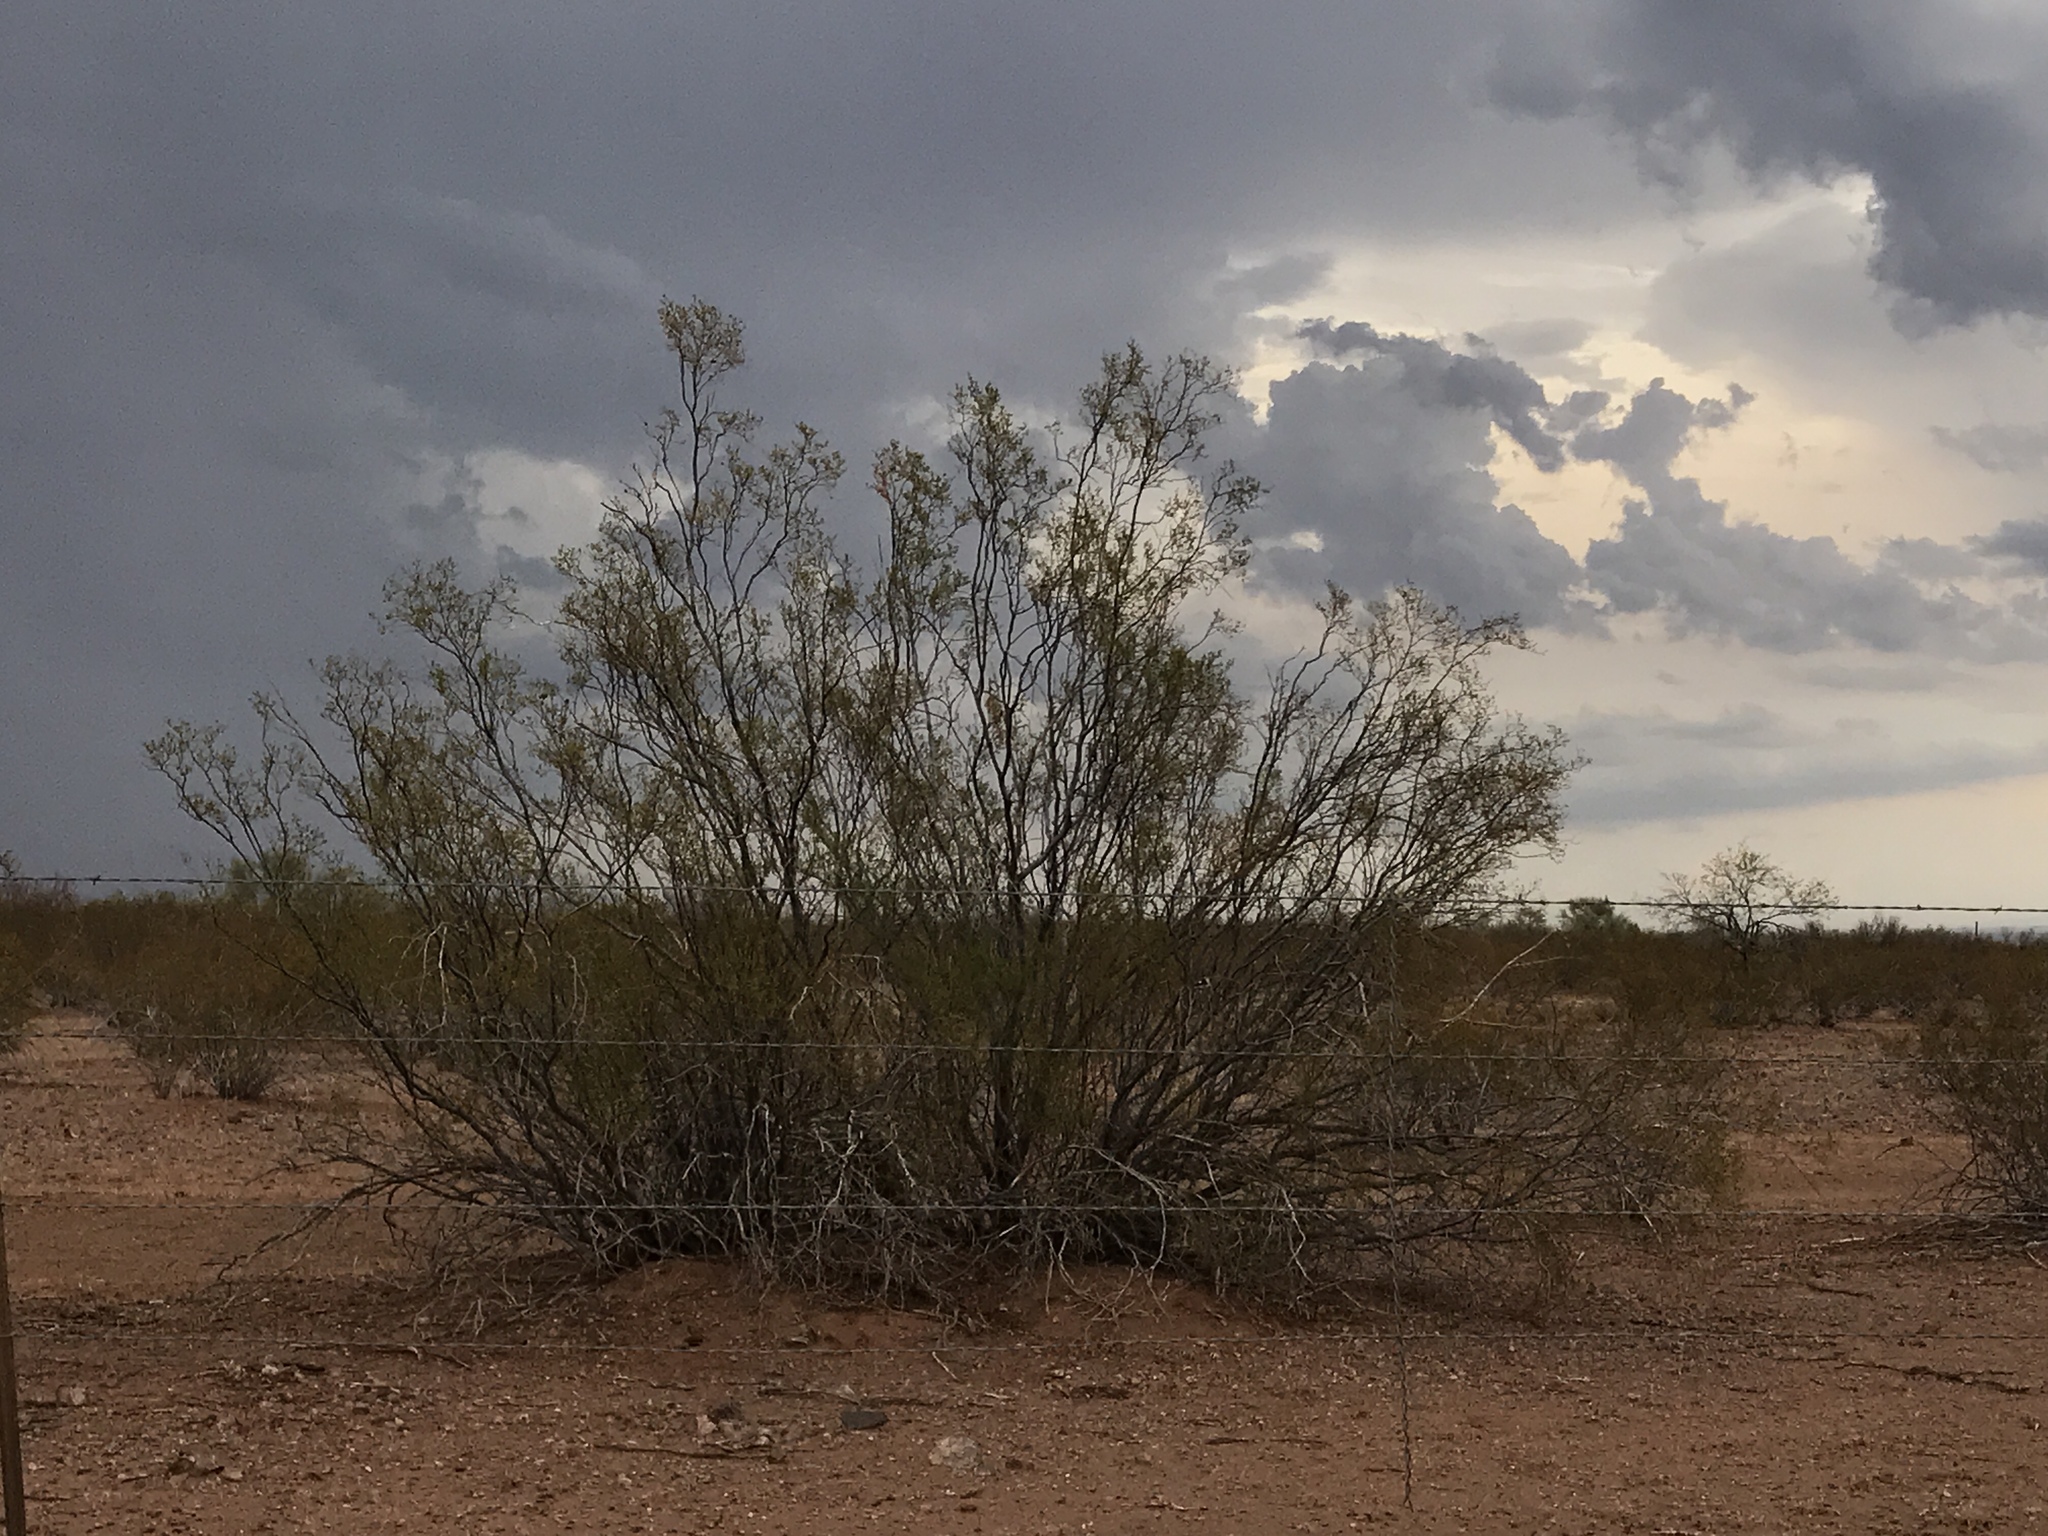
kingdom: Plantae
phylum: Tracheophyta
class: Magnoliopsida
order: Zygophyllales
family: Zygophyllaceae
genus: Larrea
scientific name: Larrea tridentata
